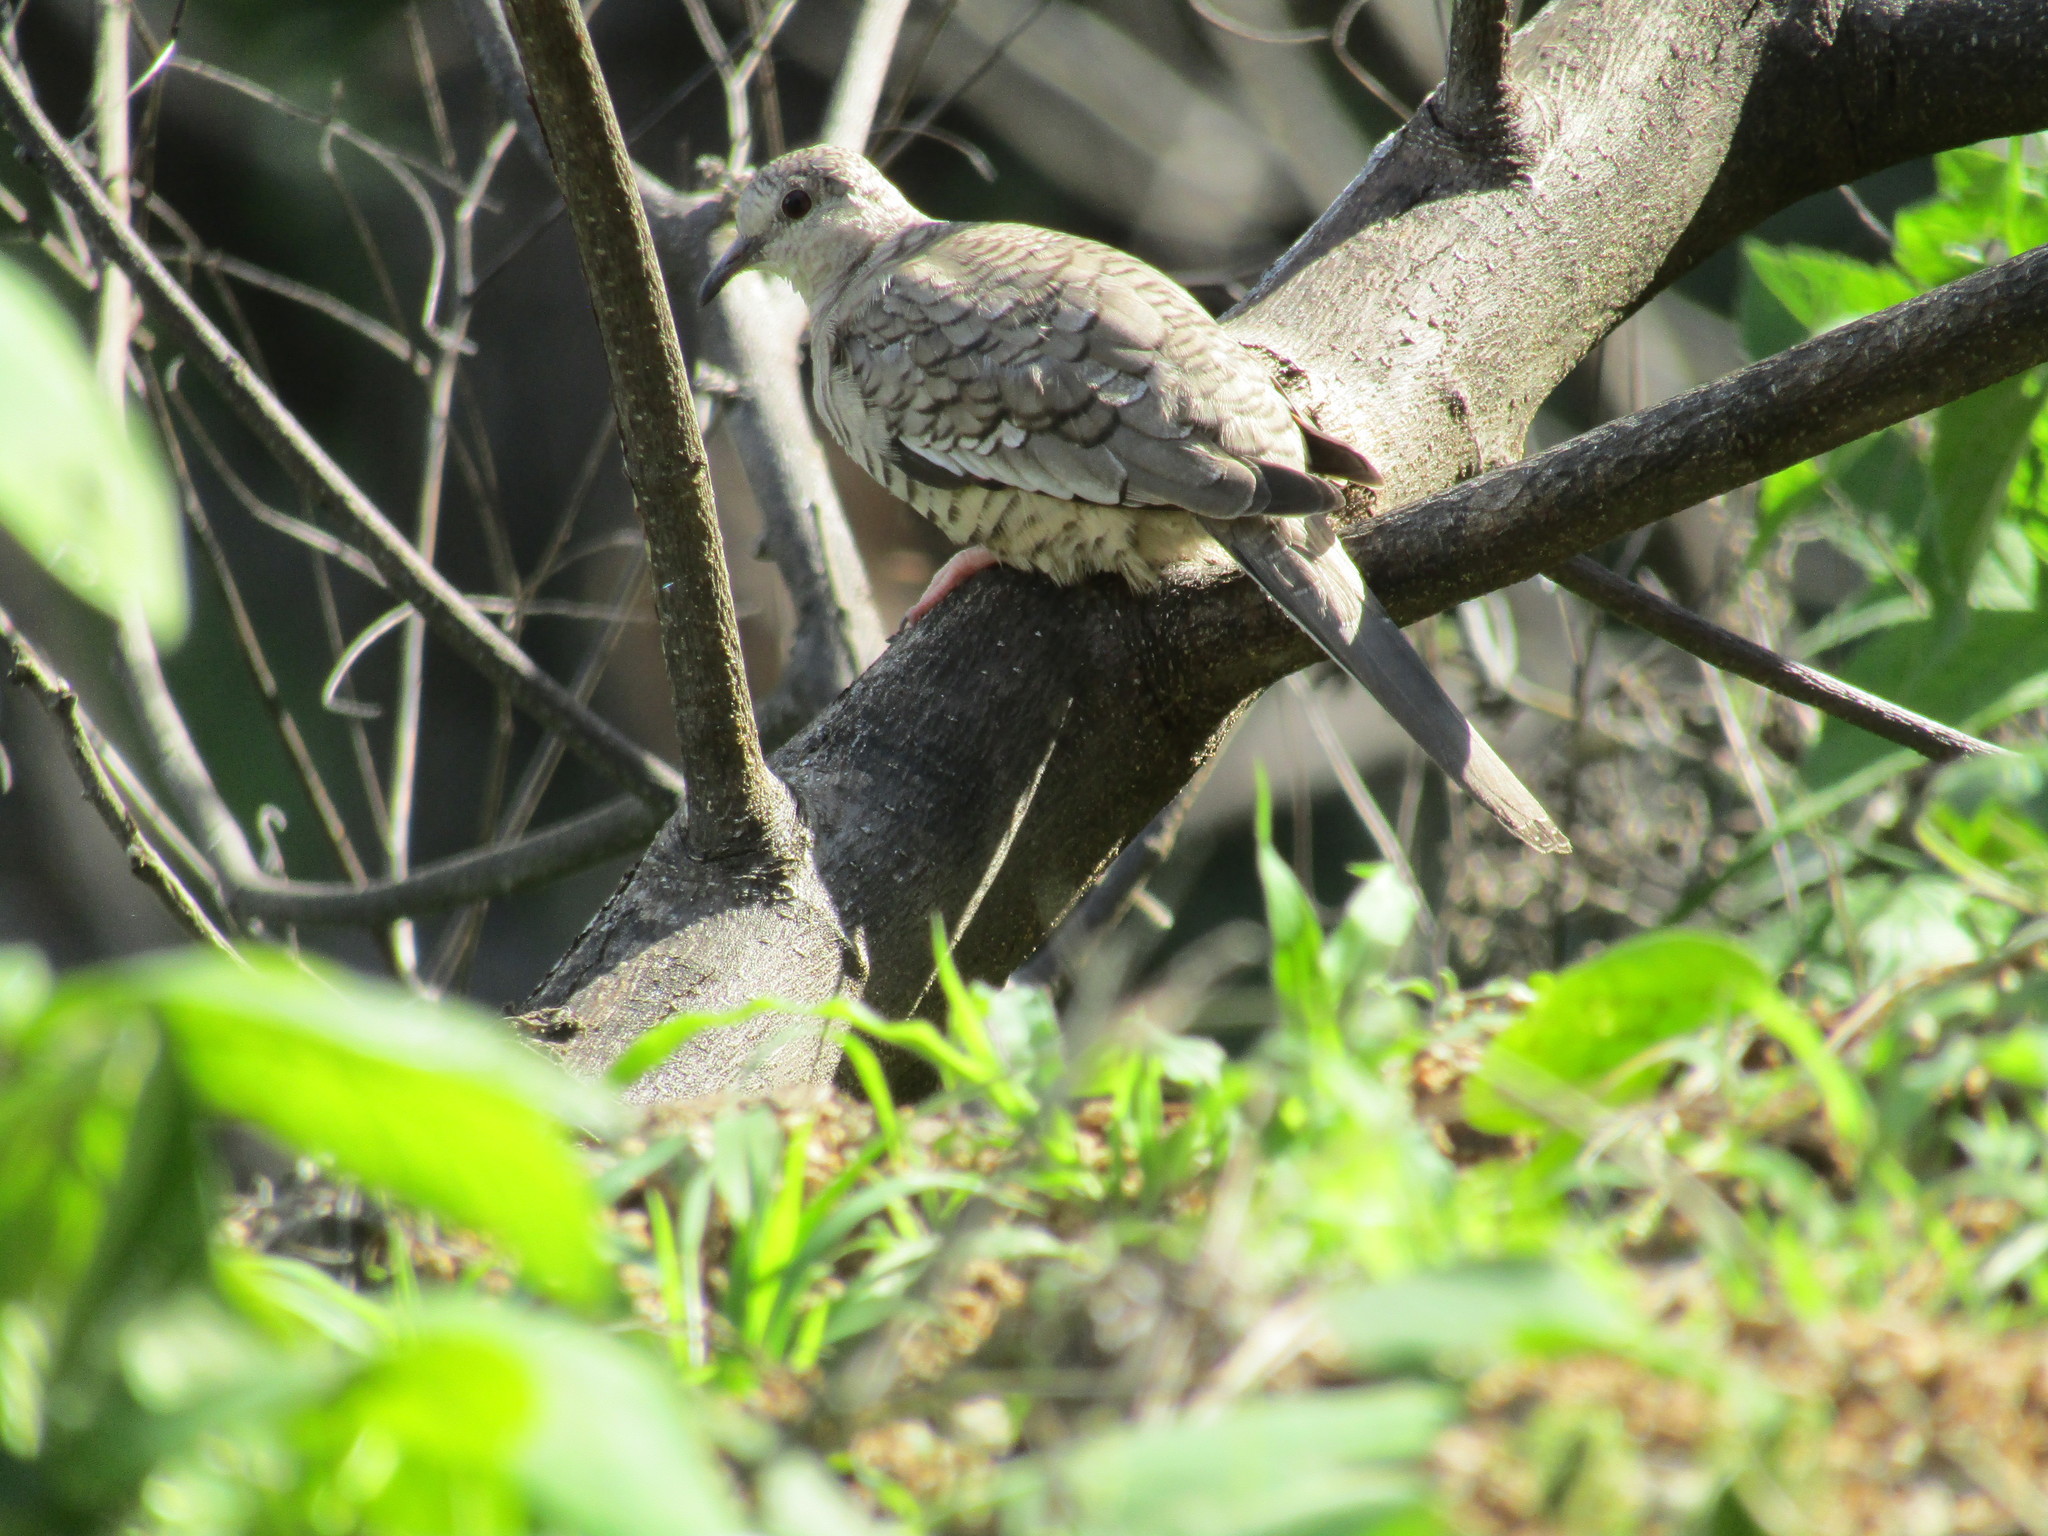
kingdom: Animalia
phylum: Chordata
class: Aves
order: Columbiformes
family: Columbidae
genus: Columbina
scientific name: Columbina inca
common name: Inca dove
